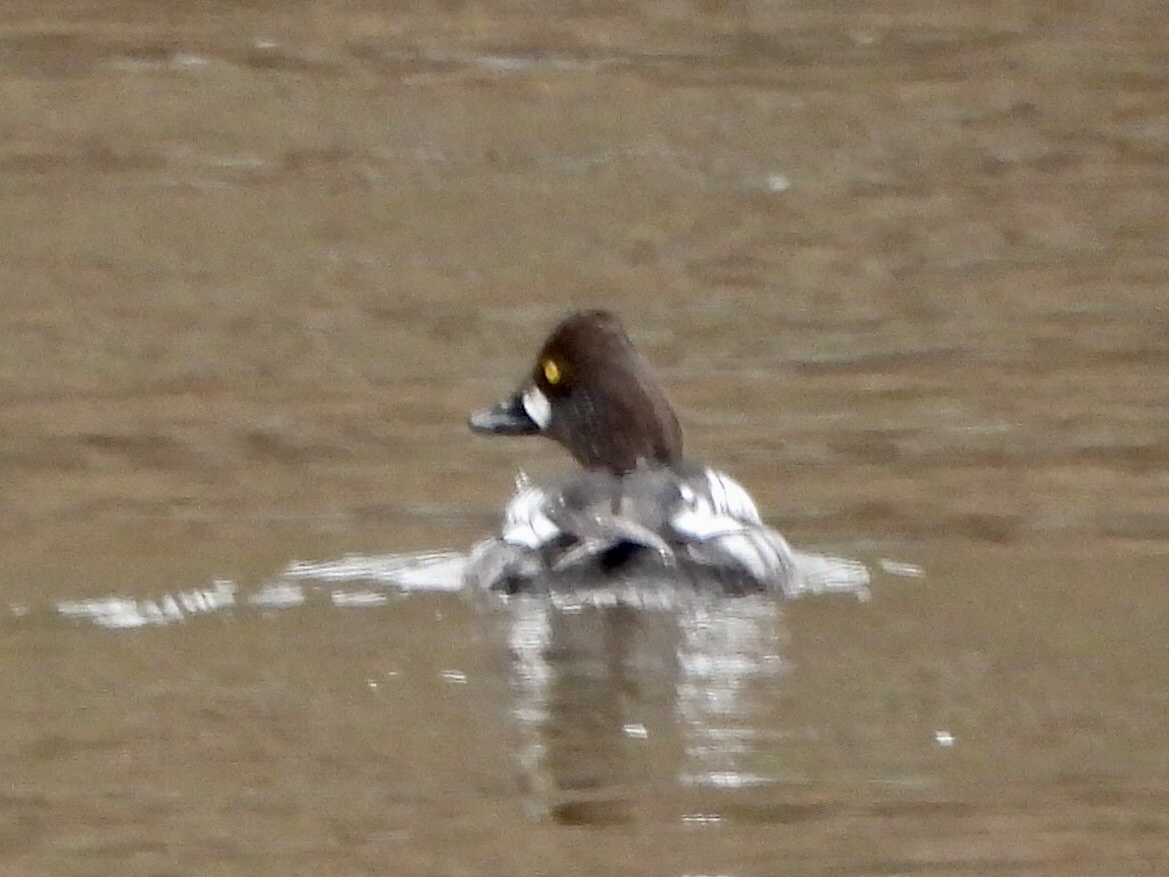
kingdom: Animalia
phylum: Chordata
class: Aves
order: Anseriformes
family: Anatidae
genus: Bucephala
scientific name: Bucephala clangula
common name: Common goldeneye
